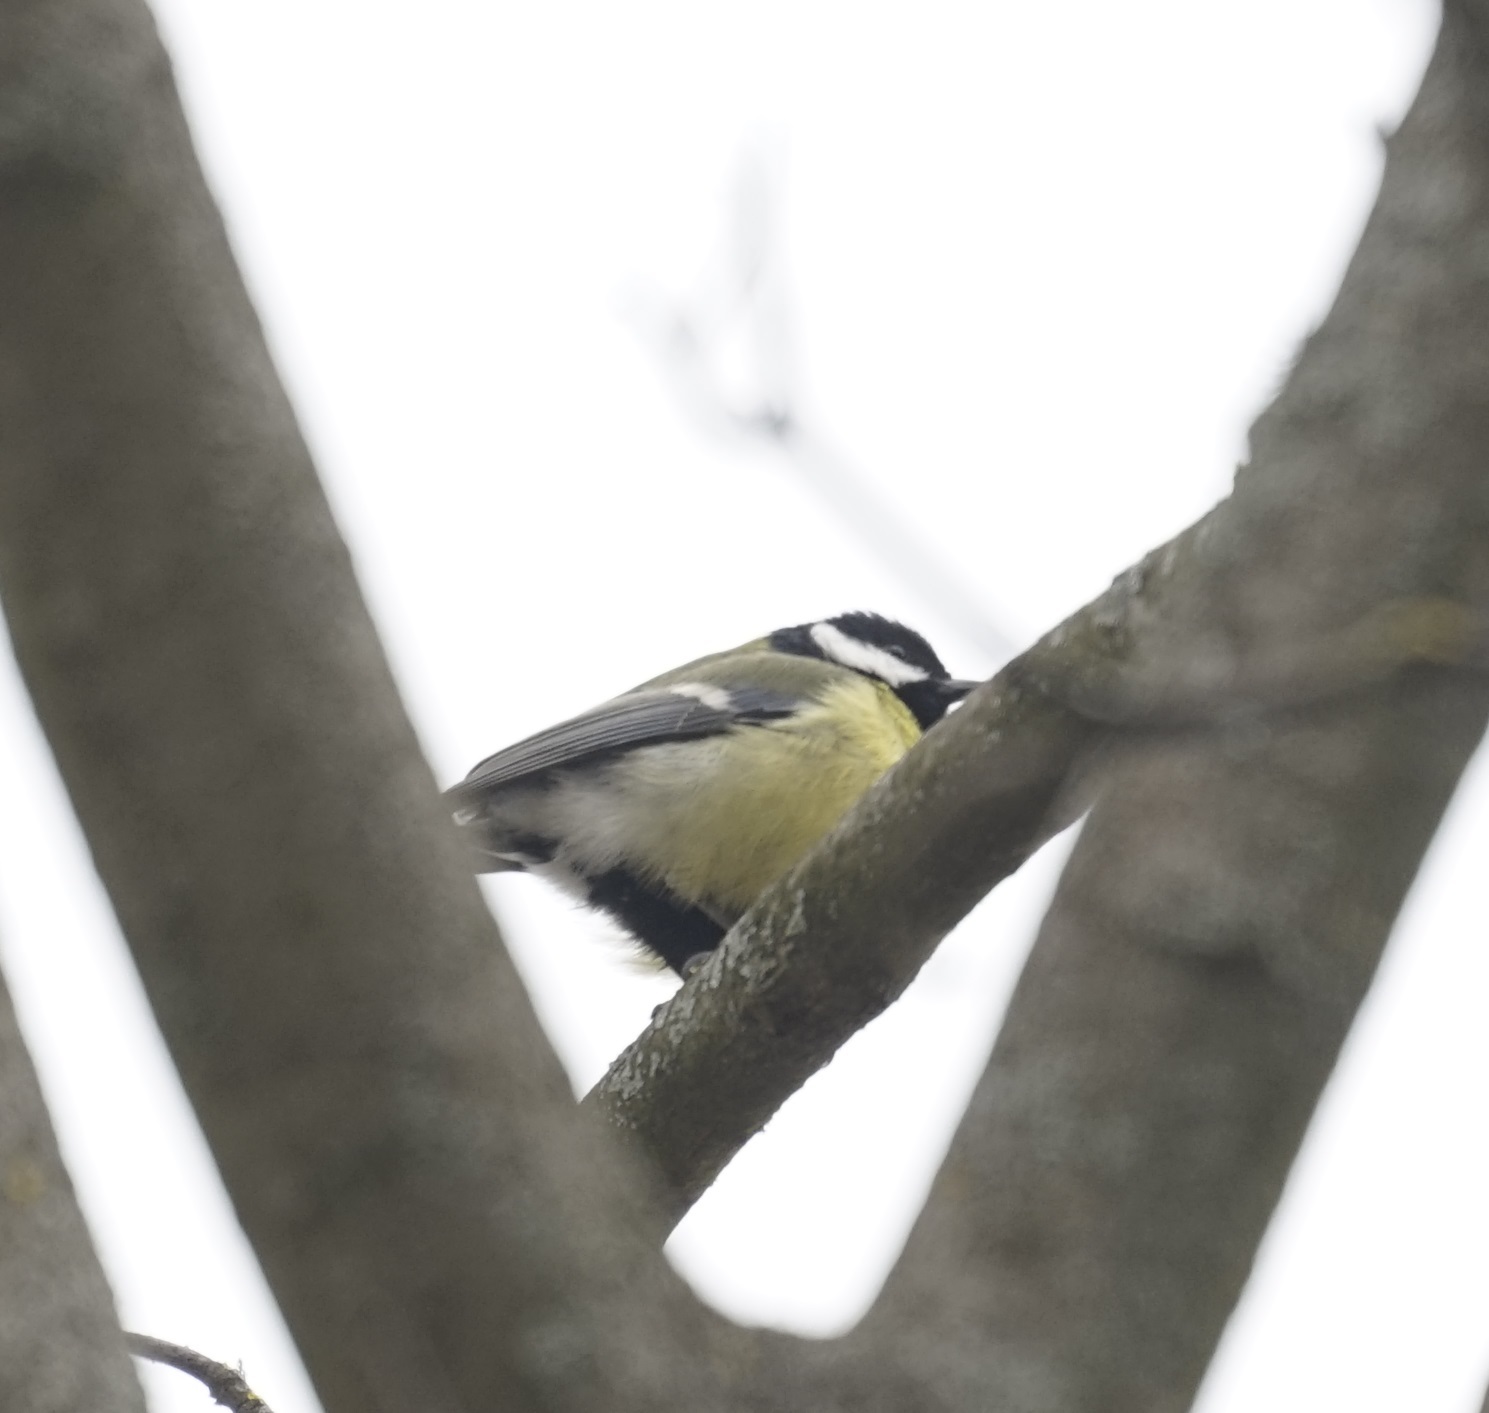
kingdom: Animalia
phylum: Chordata
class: Aves
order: Passeriformes
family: Paridae
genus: Parus
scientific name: Parus major
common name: Great tit
